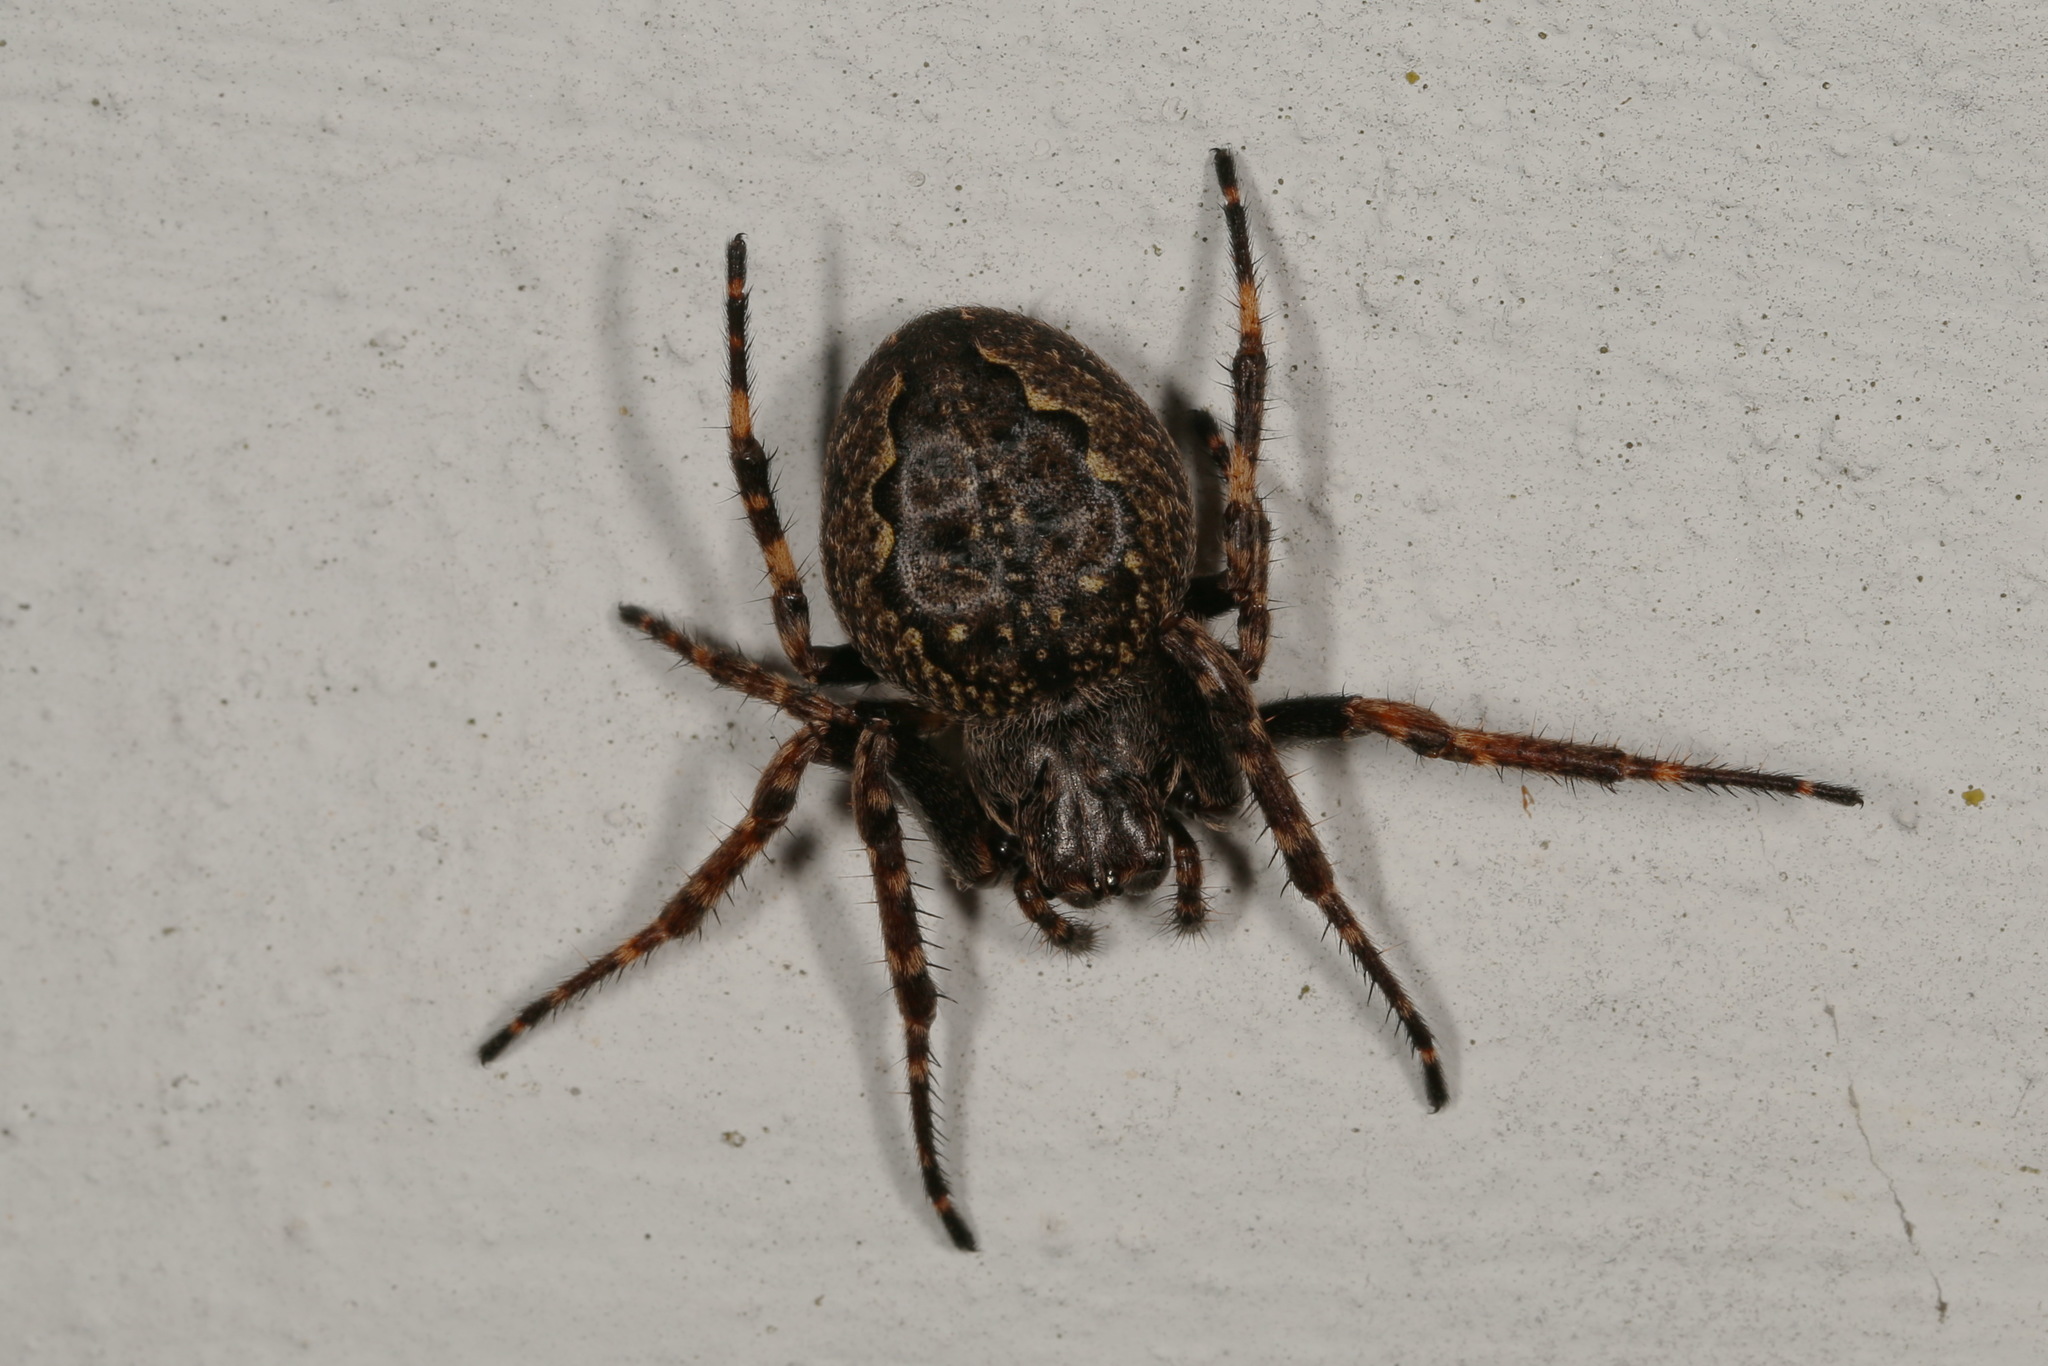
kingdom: Animalia
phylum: Arthropoda
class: Arachnida
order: Araneae
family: Araneidae
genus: Nuctenea
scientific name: Nuctenea umbratica
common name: Toad spider
